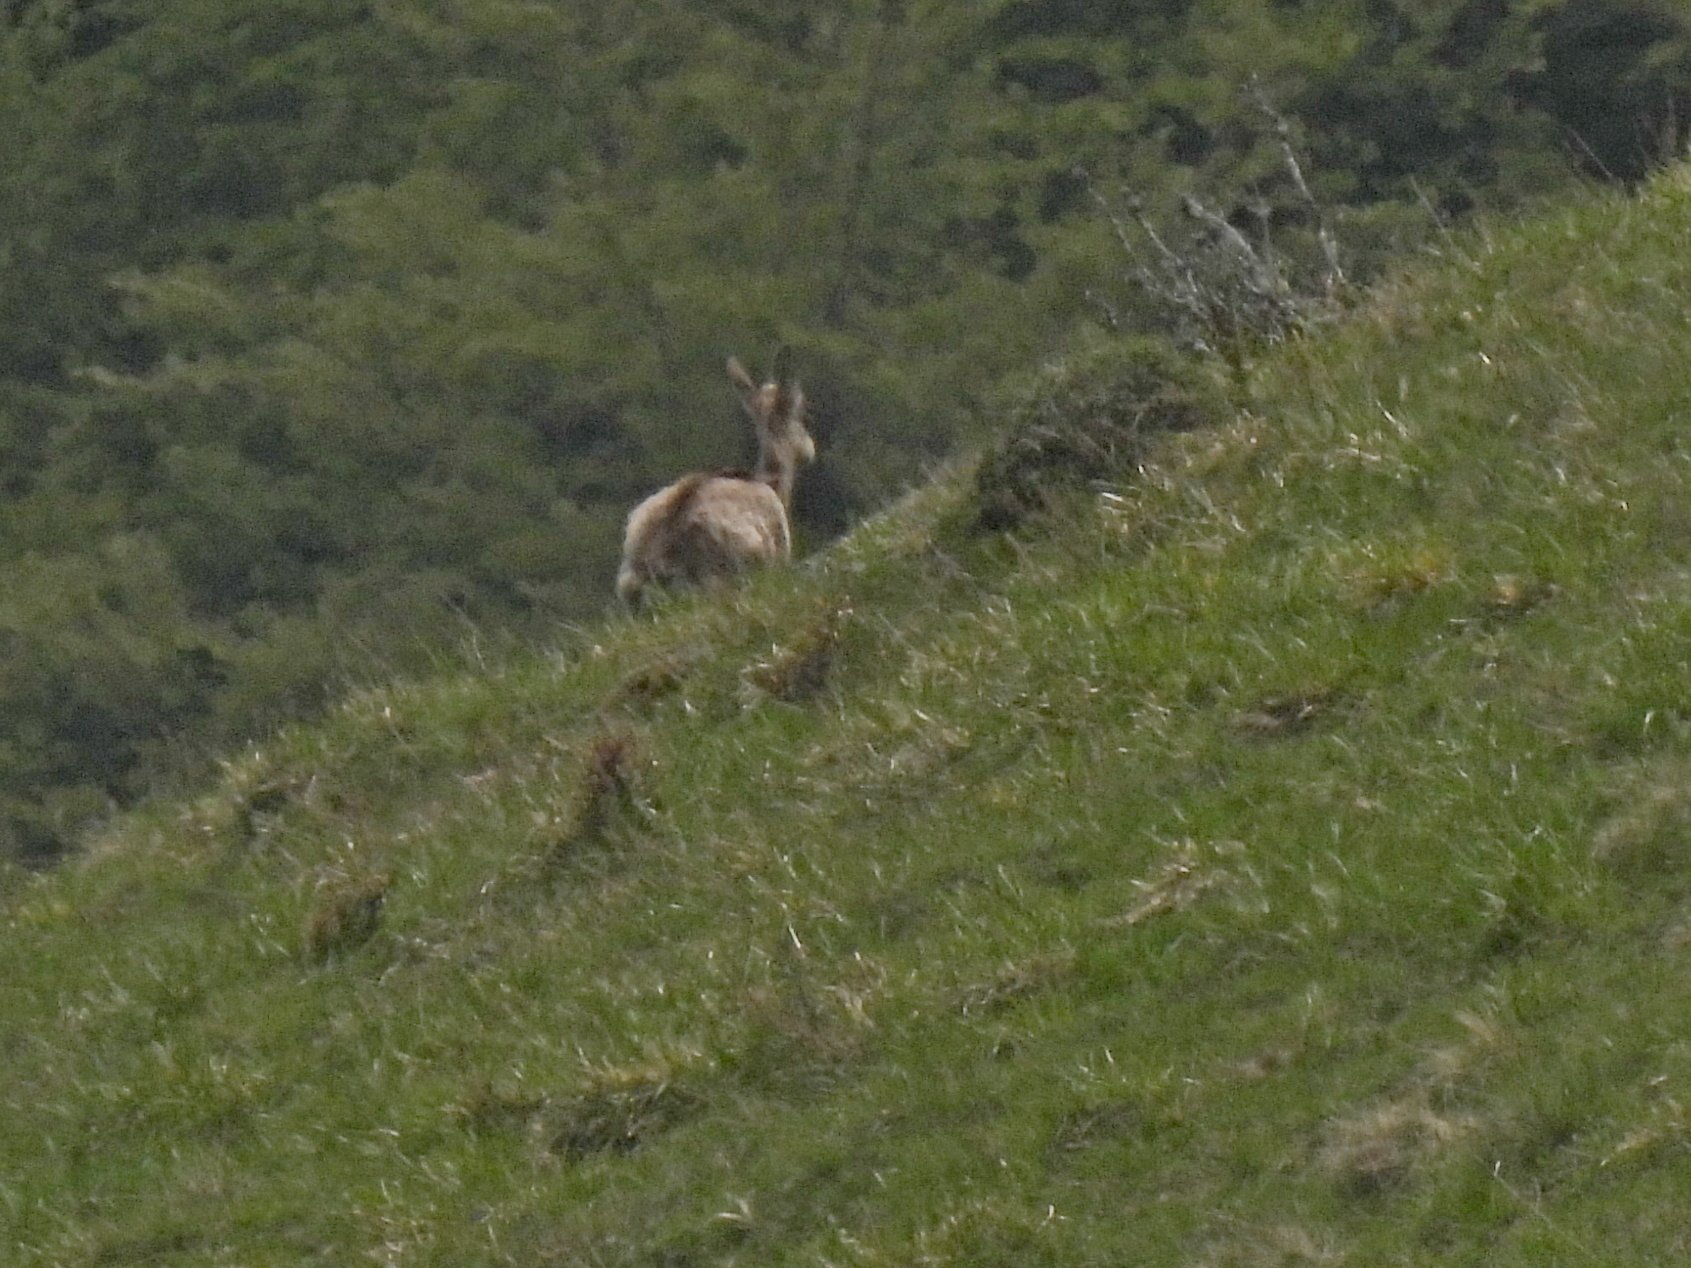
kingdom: Animalia
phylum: Chordata
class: Mammalia
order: Artiodactyla
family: Bovidae
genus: Rupicapra
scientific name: Rupicapra rupicapra
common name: Chamois
